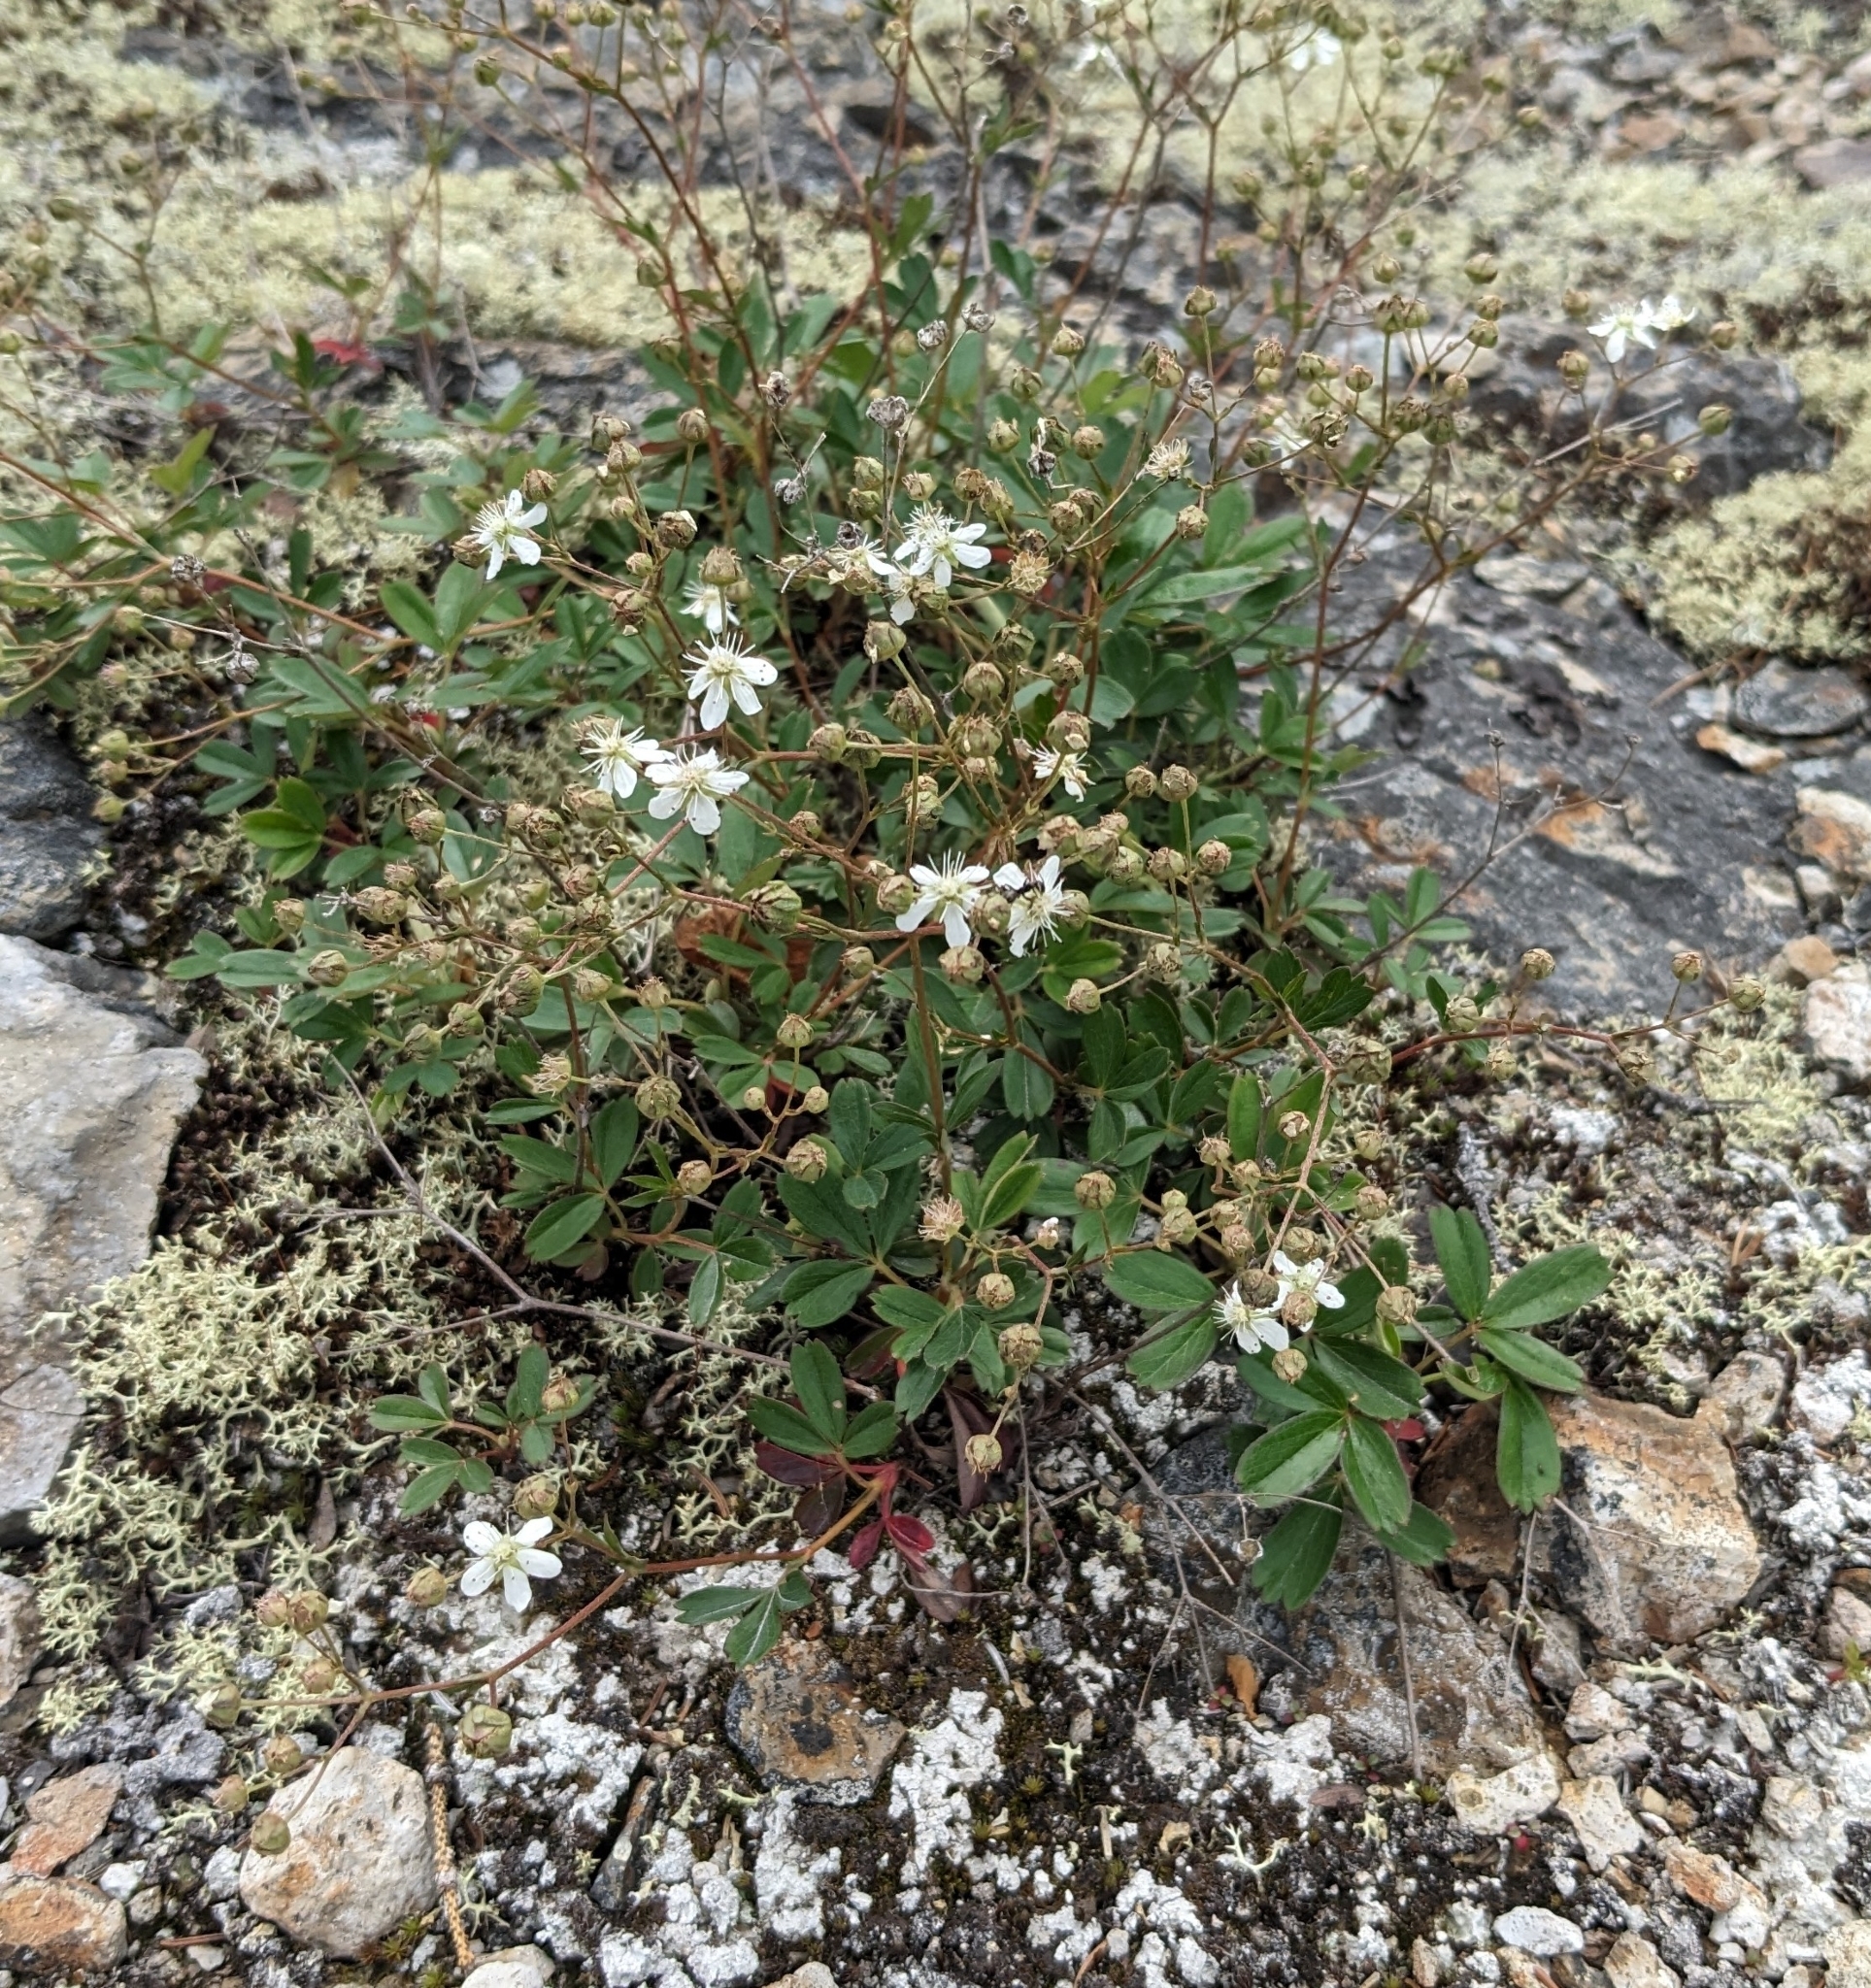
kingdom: Plantae
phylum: Tracheophyta
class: Magnoliopsida
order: Rosales
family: Rosaceae
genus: Sibbaldia
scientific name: Sibbaldia tridentata
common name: Three-toothed cinquefoil
